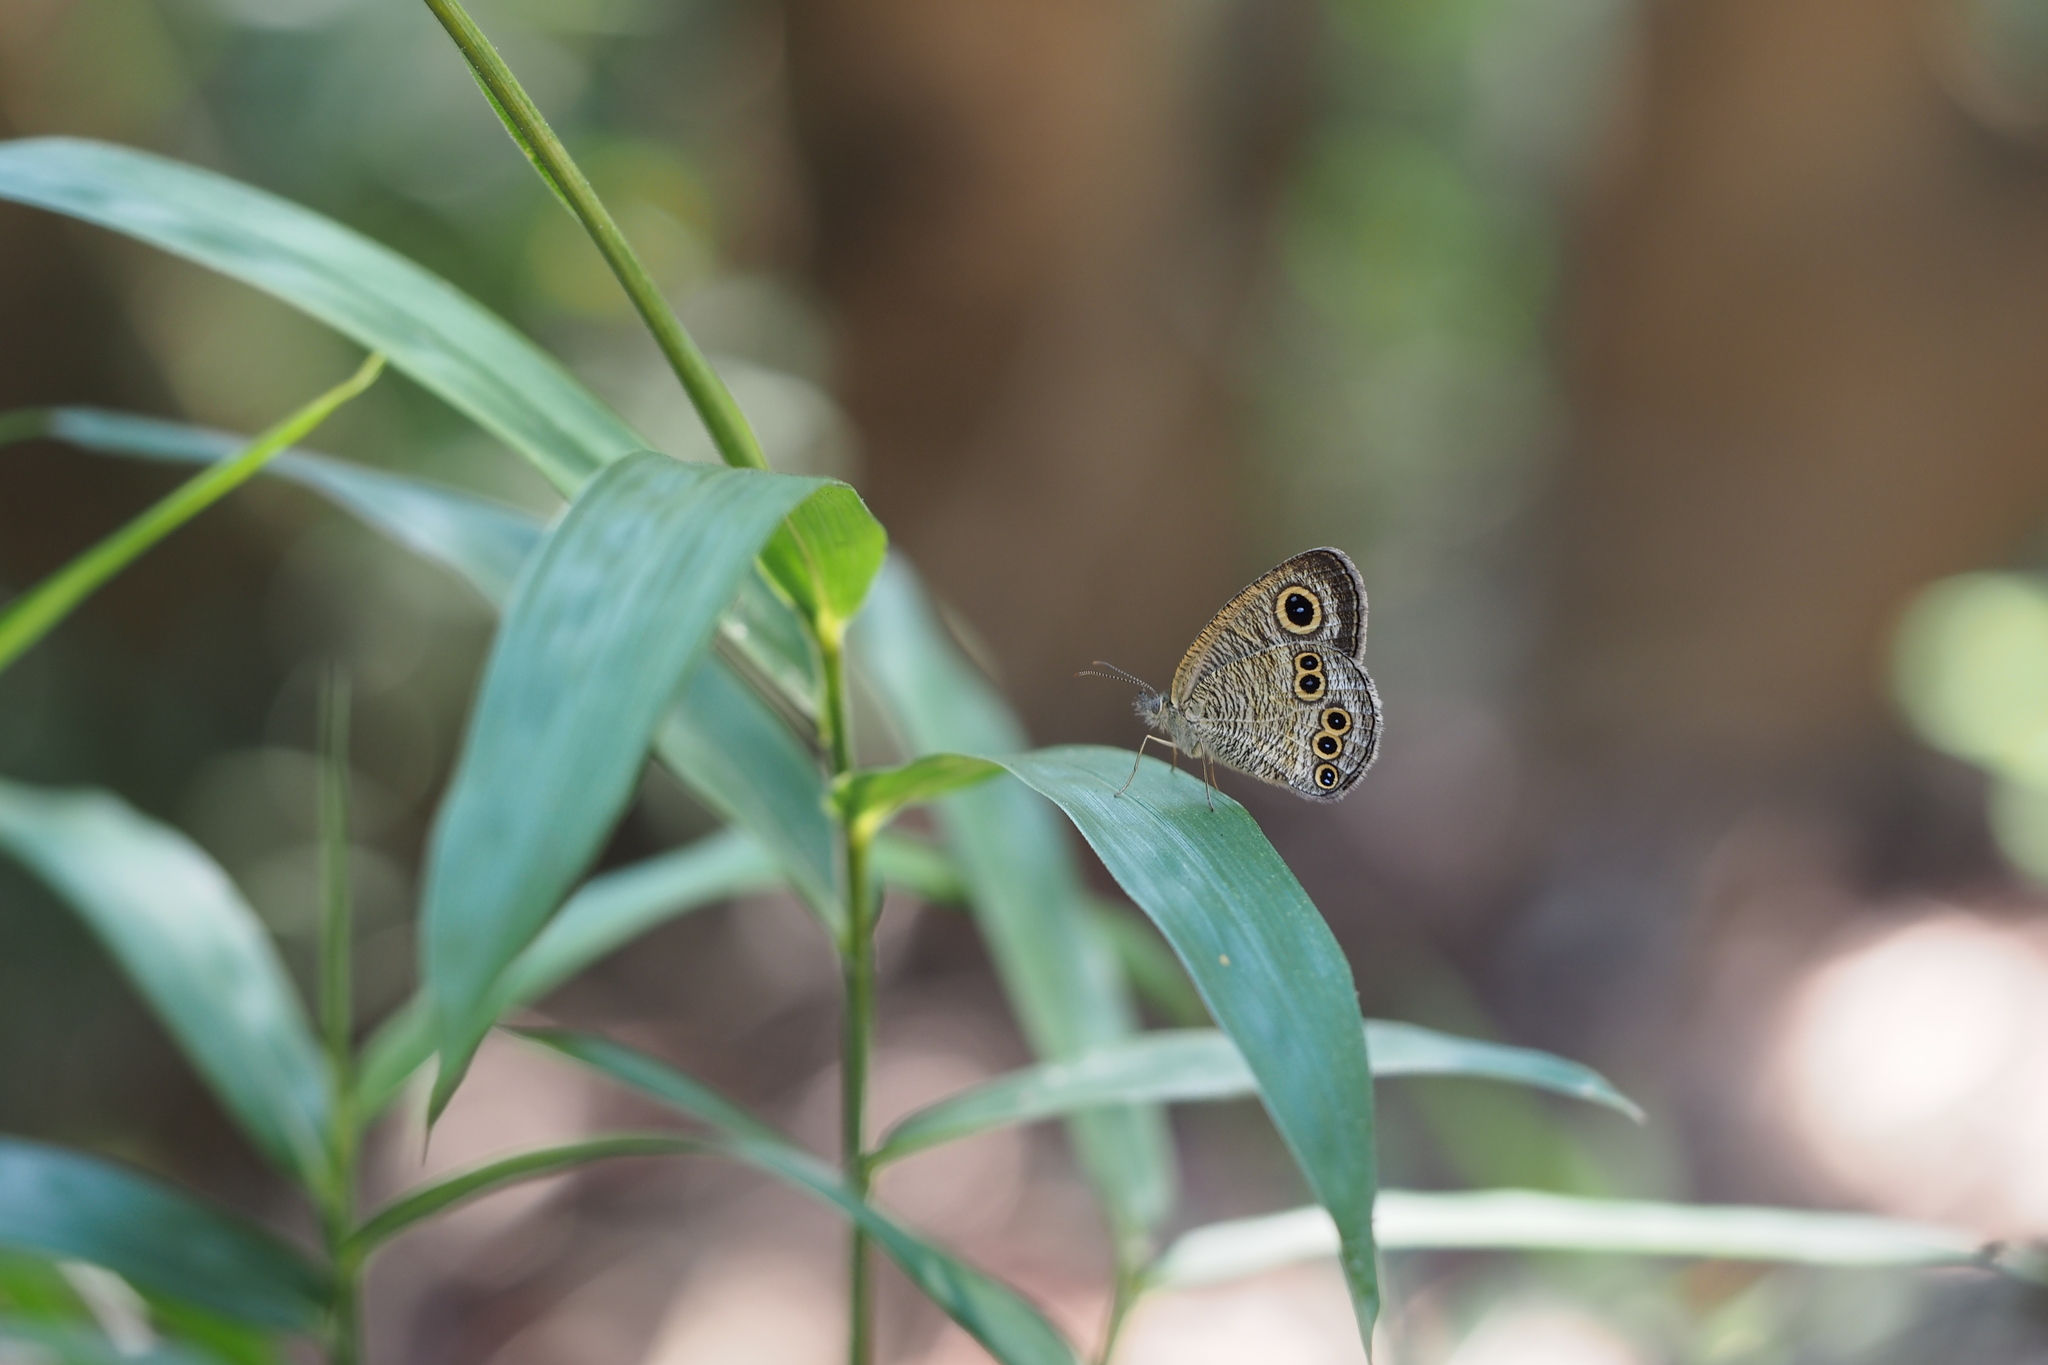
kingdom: Animalia
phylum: Arthropoda
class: Insecta
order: Lepidoptera
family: Nymphalidae
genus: Ypthima
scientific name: Ypthima argus
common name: Common fivering
